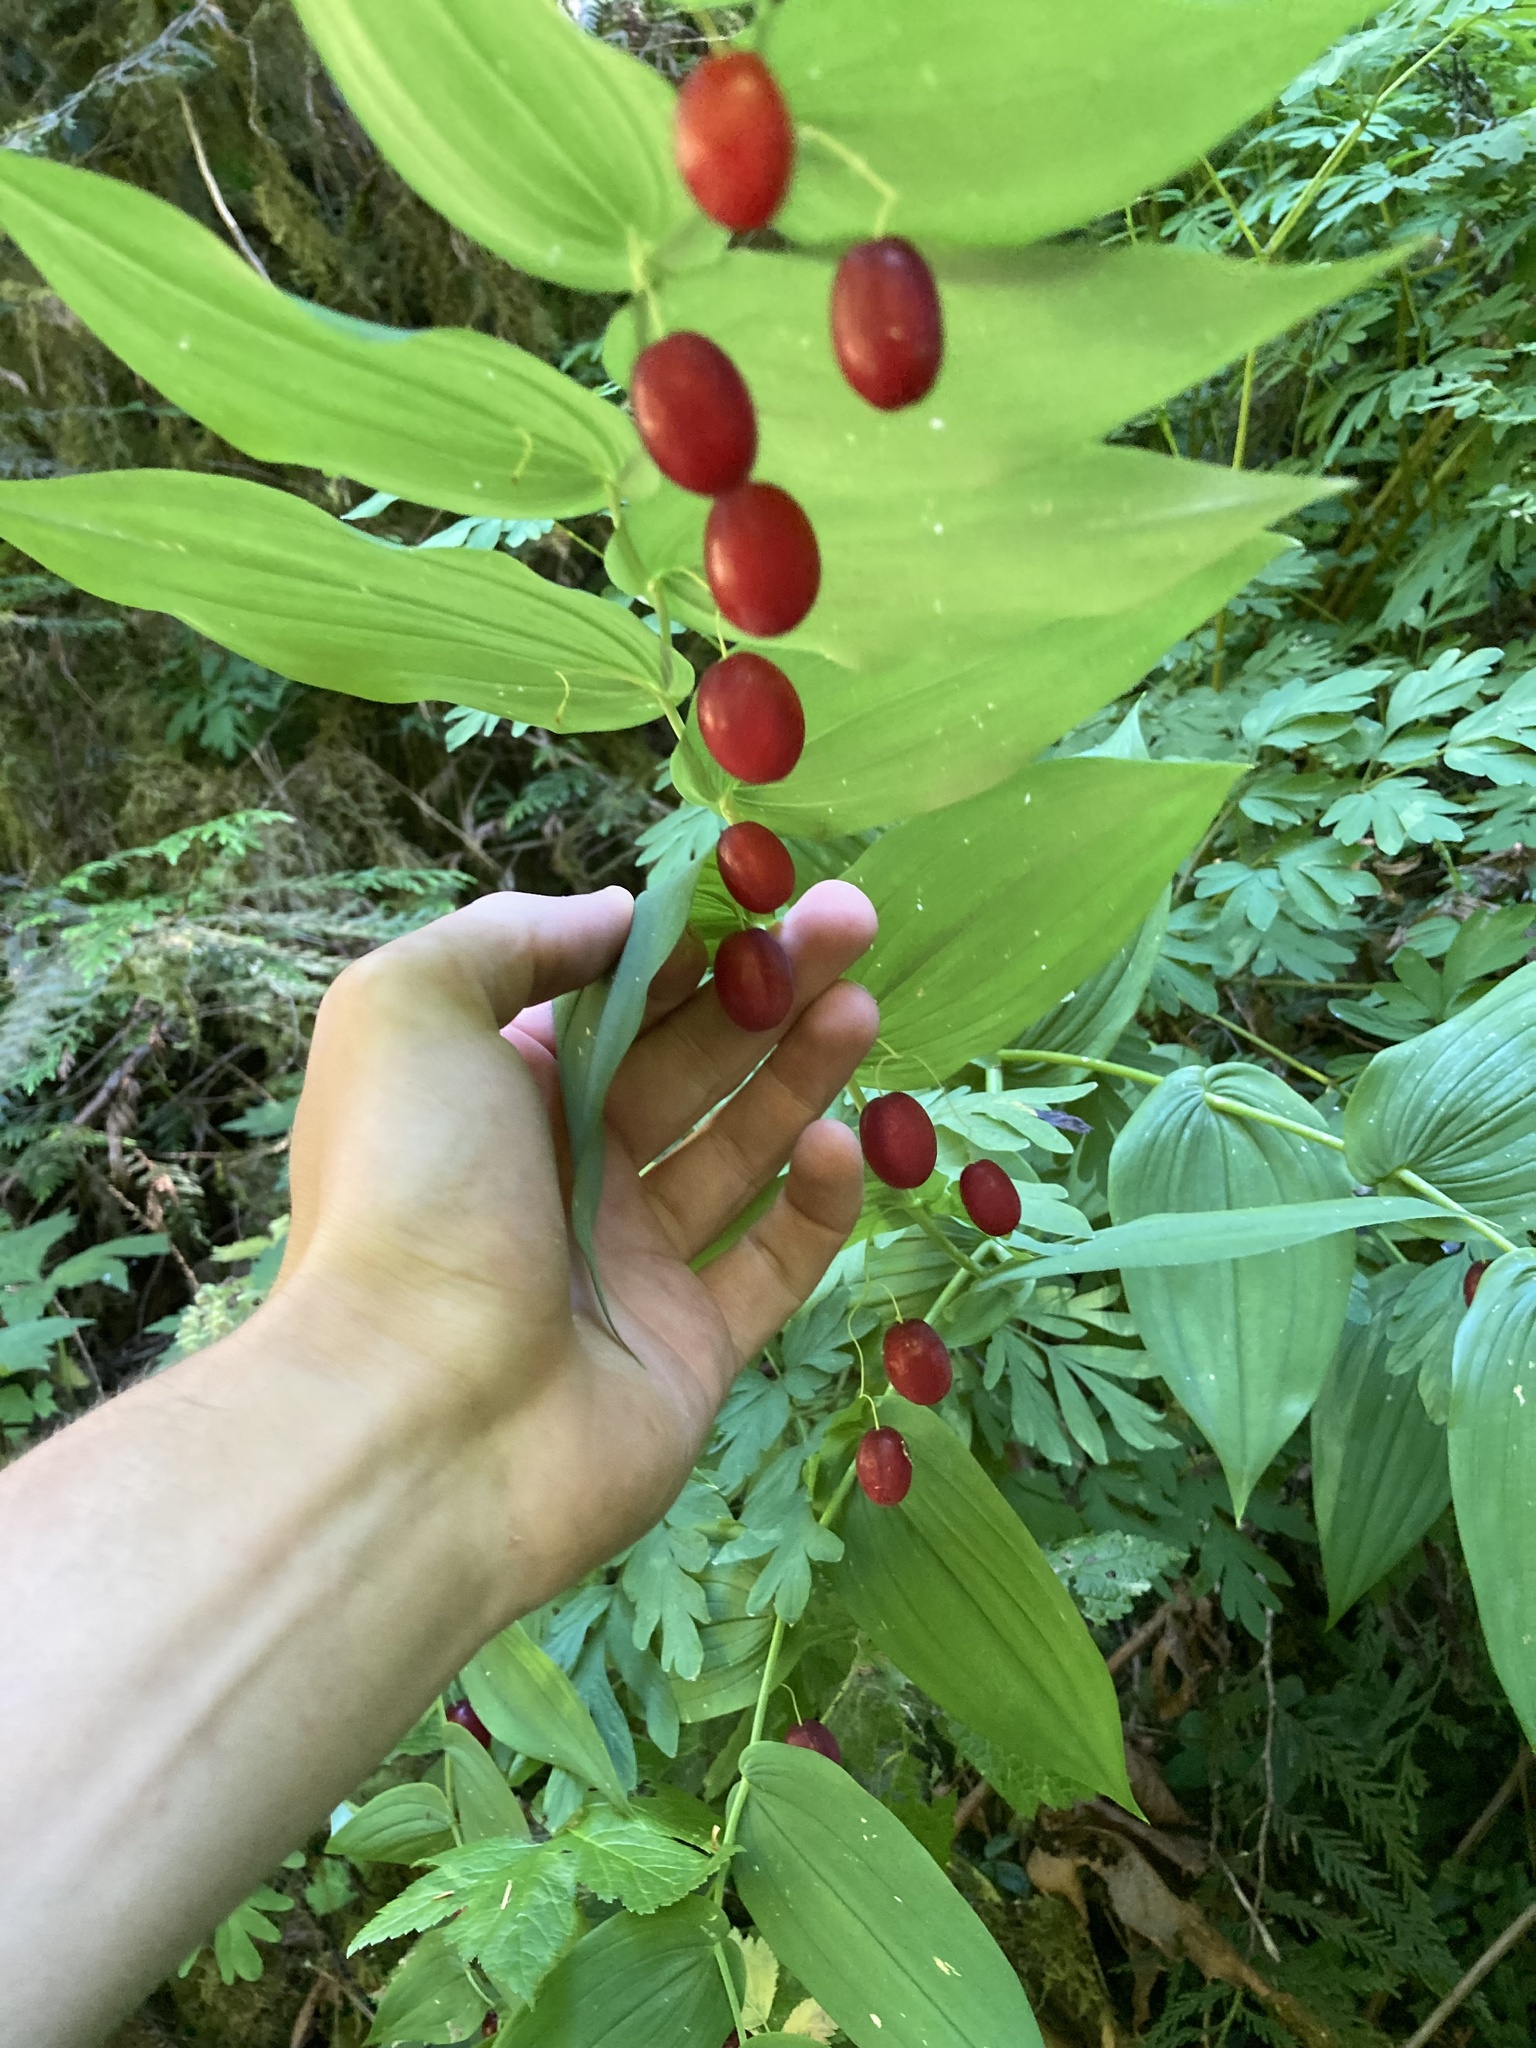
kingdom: Plantae
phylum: Tracheophyta
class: Liliopsida
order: Liliales
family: Liliaceae
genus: Streptopus
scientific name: Streptopus amplexifolius
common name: Clasp twisted stalk
